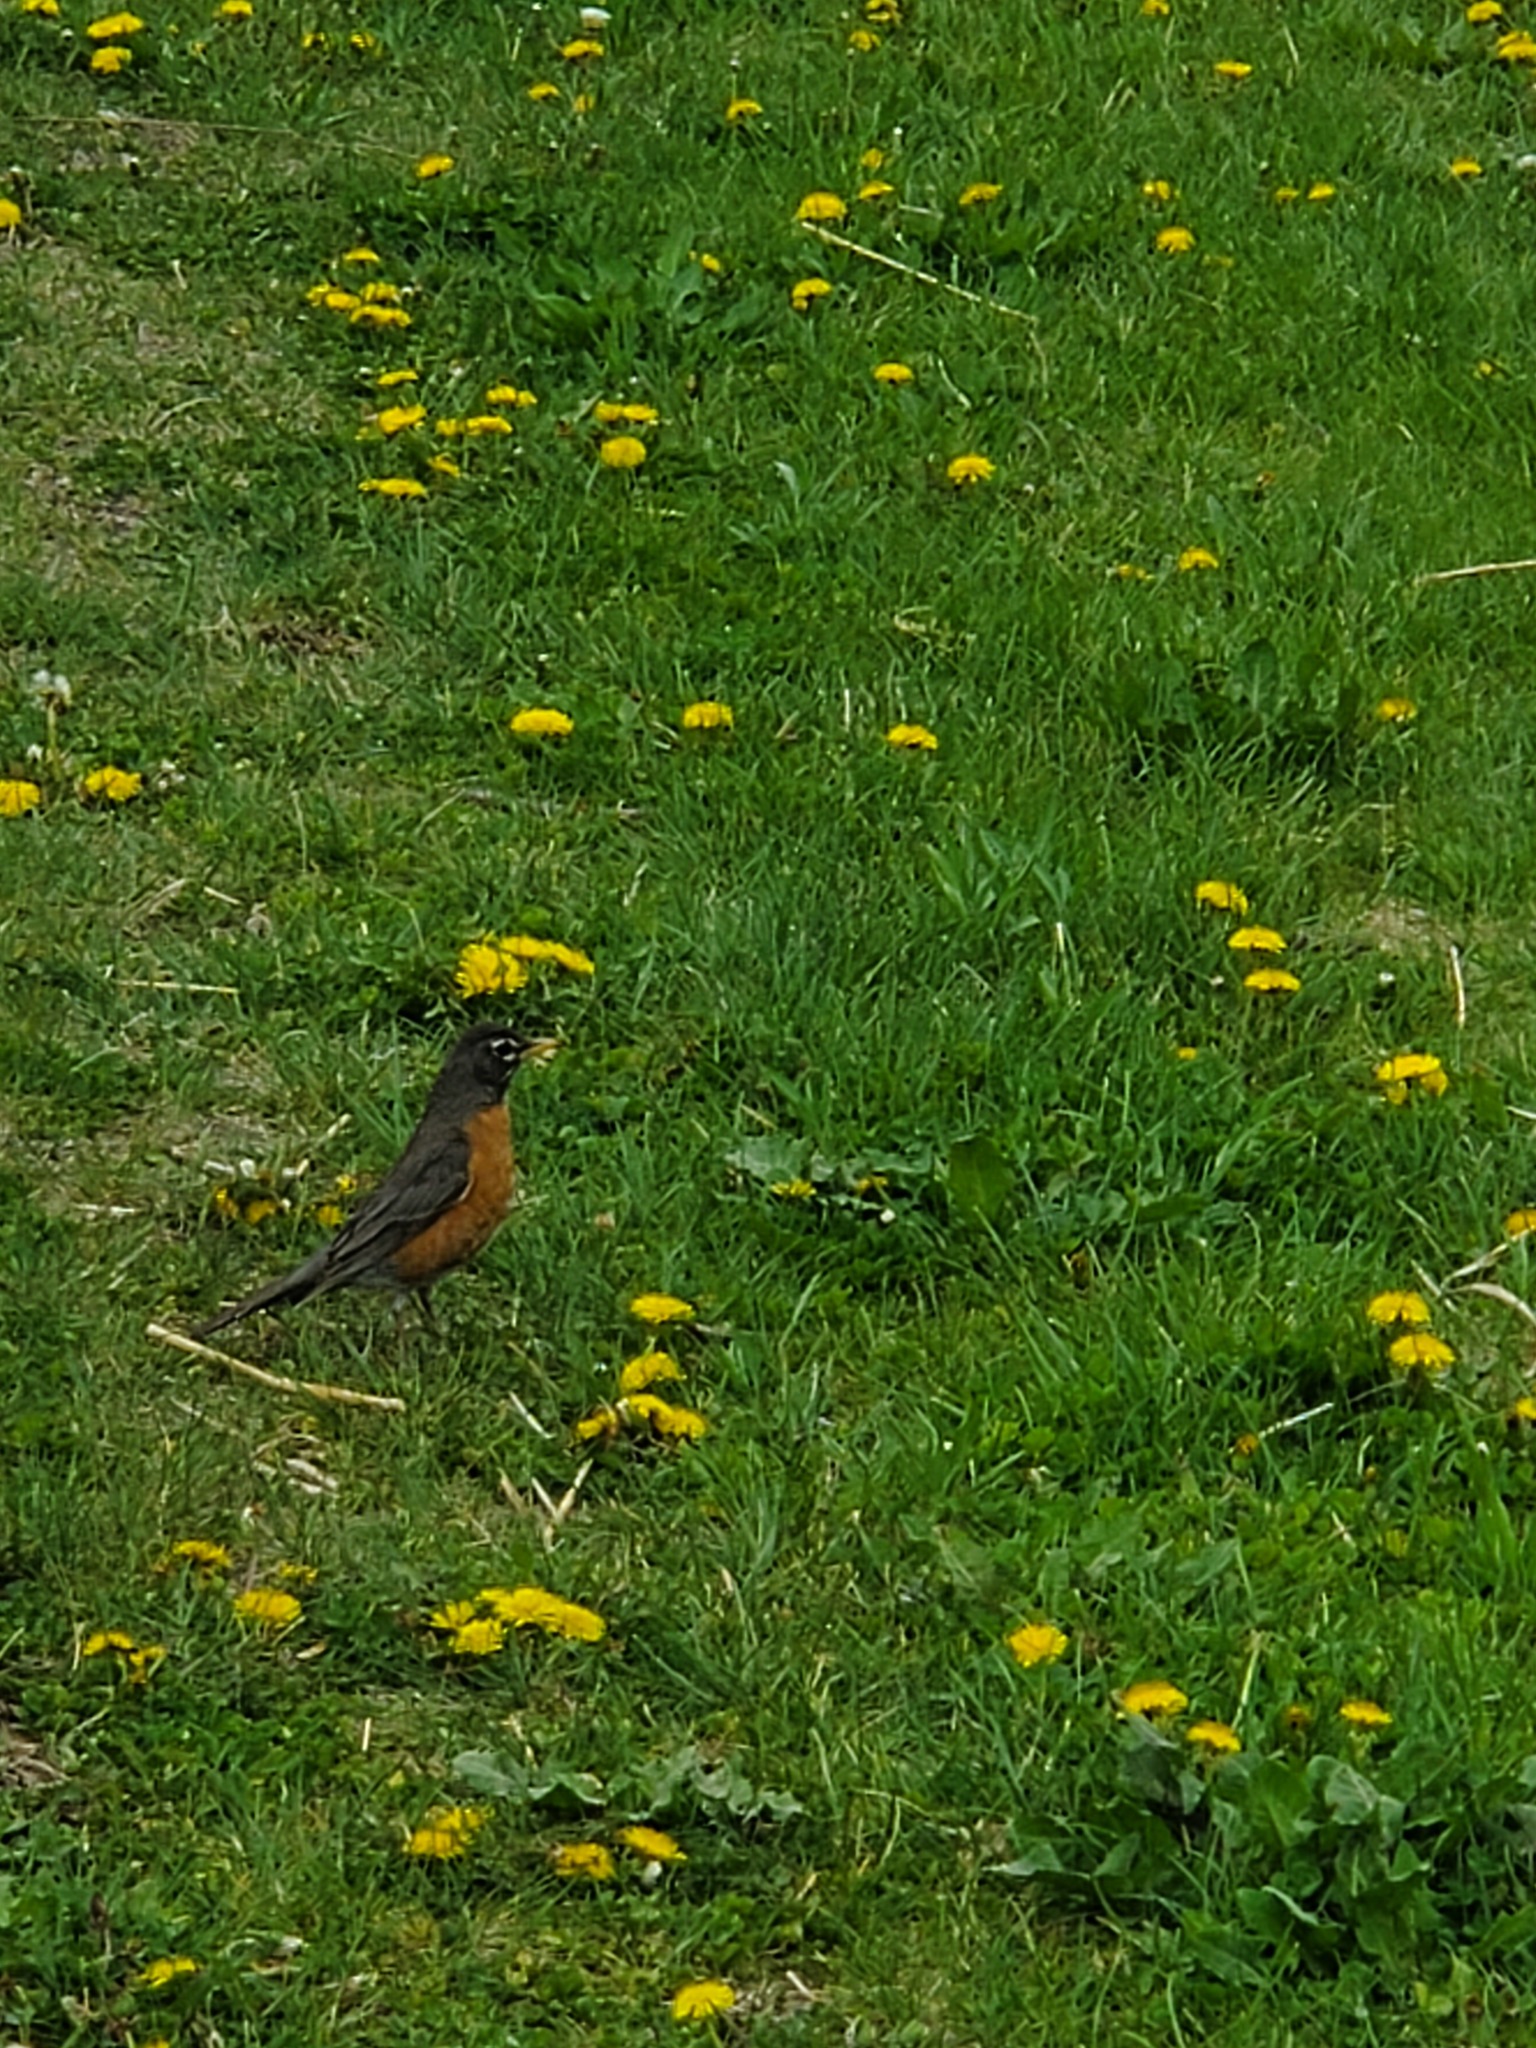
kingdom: Animalia
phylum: Chordata
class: Aves
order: Passeriformes
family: Turdidae
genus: Turdus
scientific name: Turdus migratorius
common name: American robin
